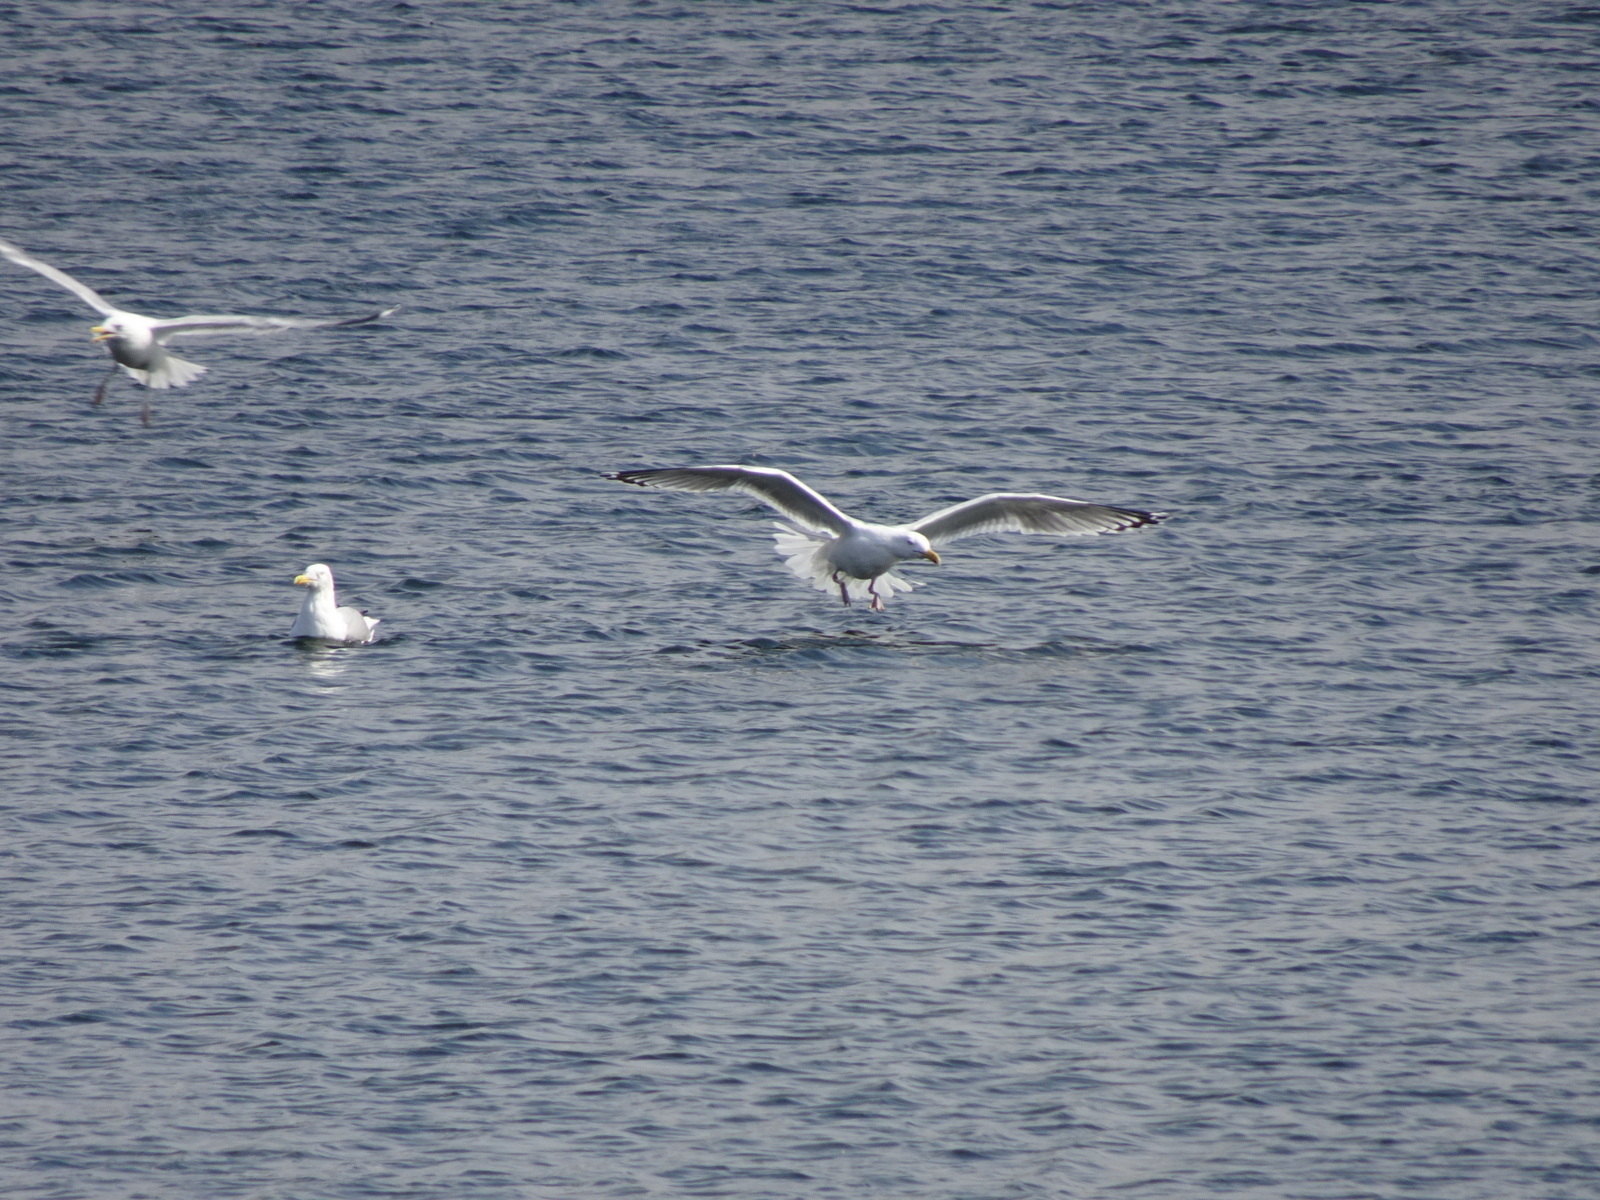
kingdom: Animalia
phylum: Chordata
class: Aves
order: Charadriiformes
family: Laridae
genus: Larus
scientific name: Larus argentatus
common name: Herring gull
